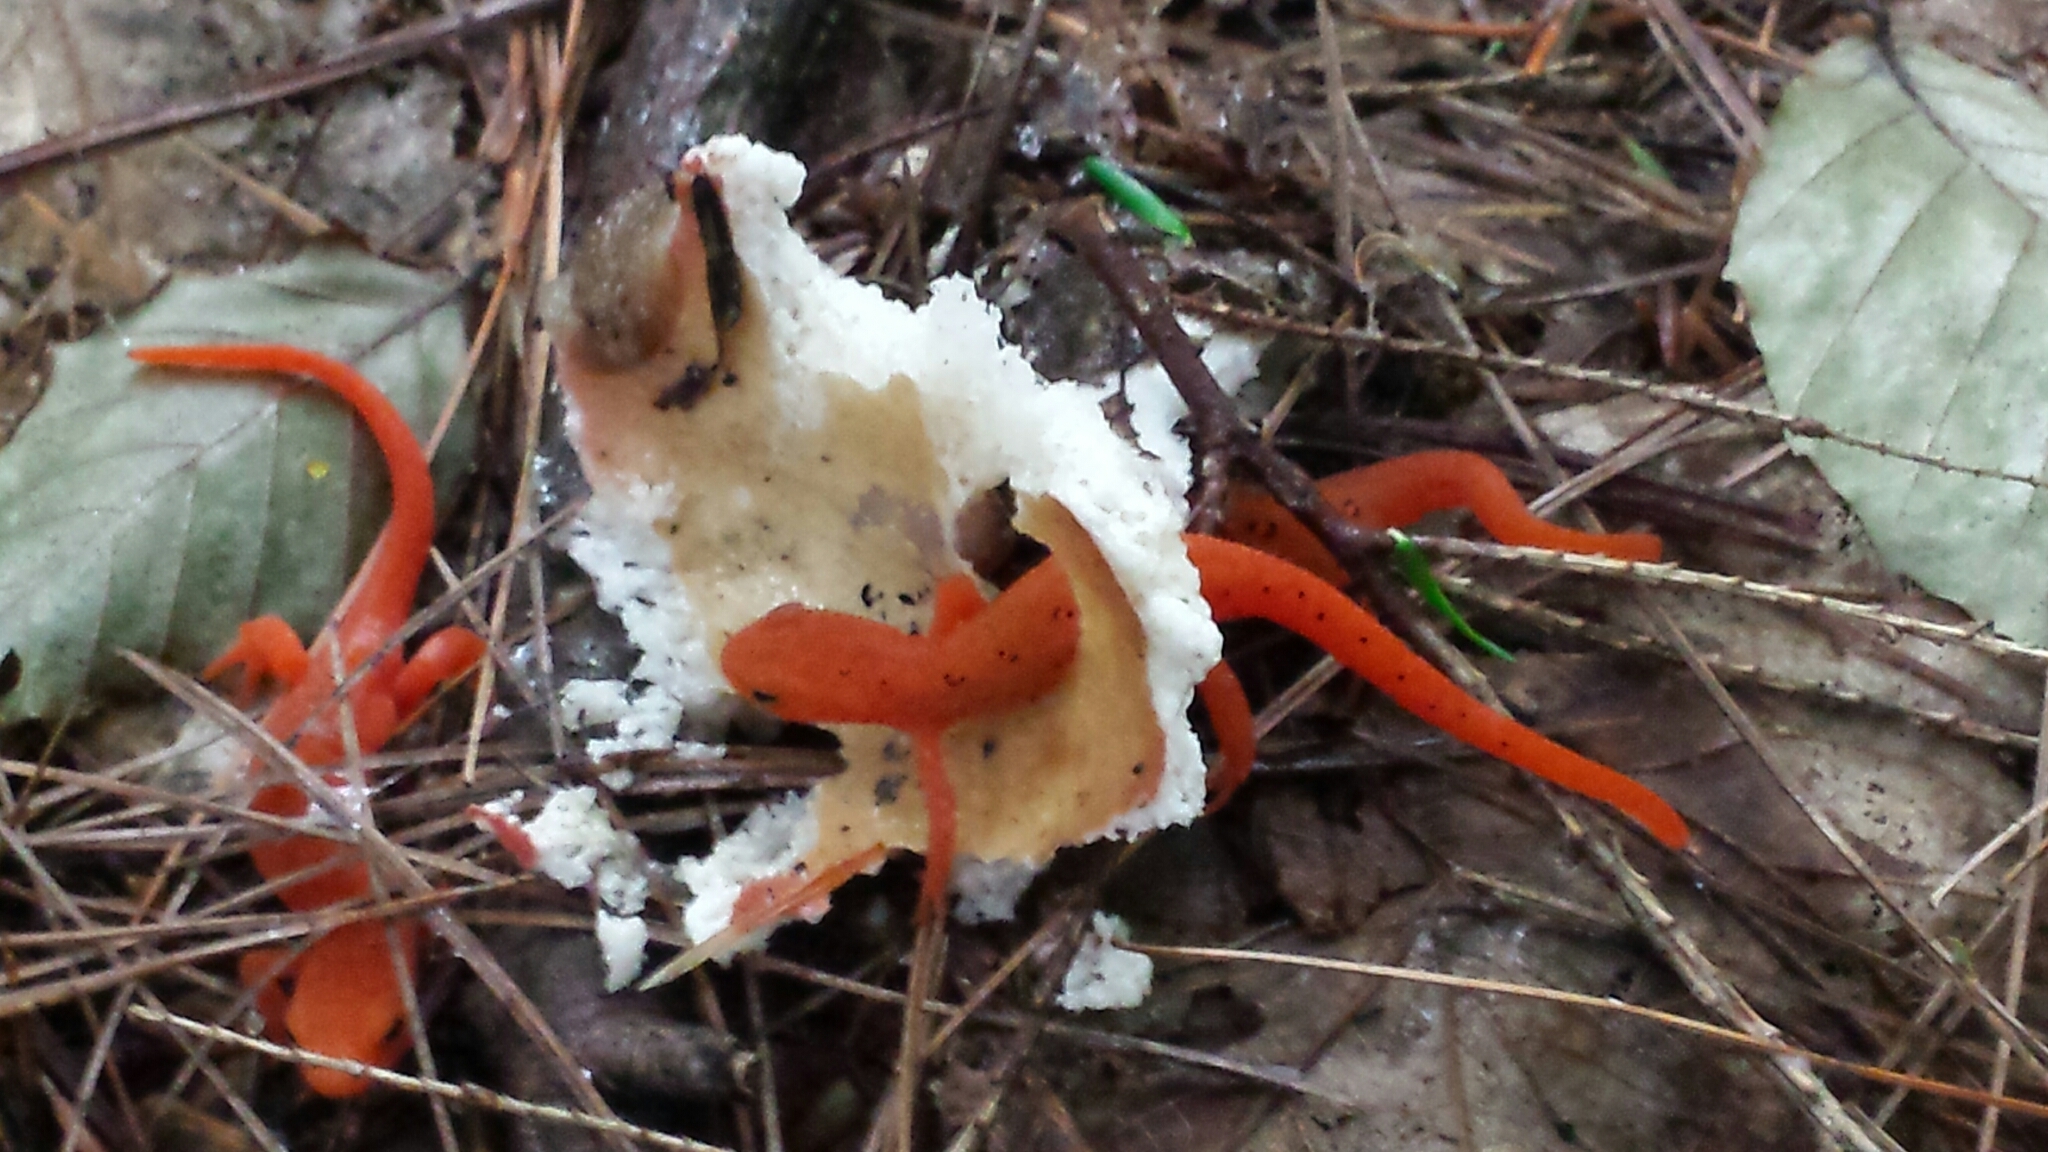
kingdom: Animalia
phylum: Chordata
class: Amphibia
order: Caudata
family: Salamandridae
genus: Notophthalmus
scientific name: Notophthalmus viridescens
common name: Eastern newt
